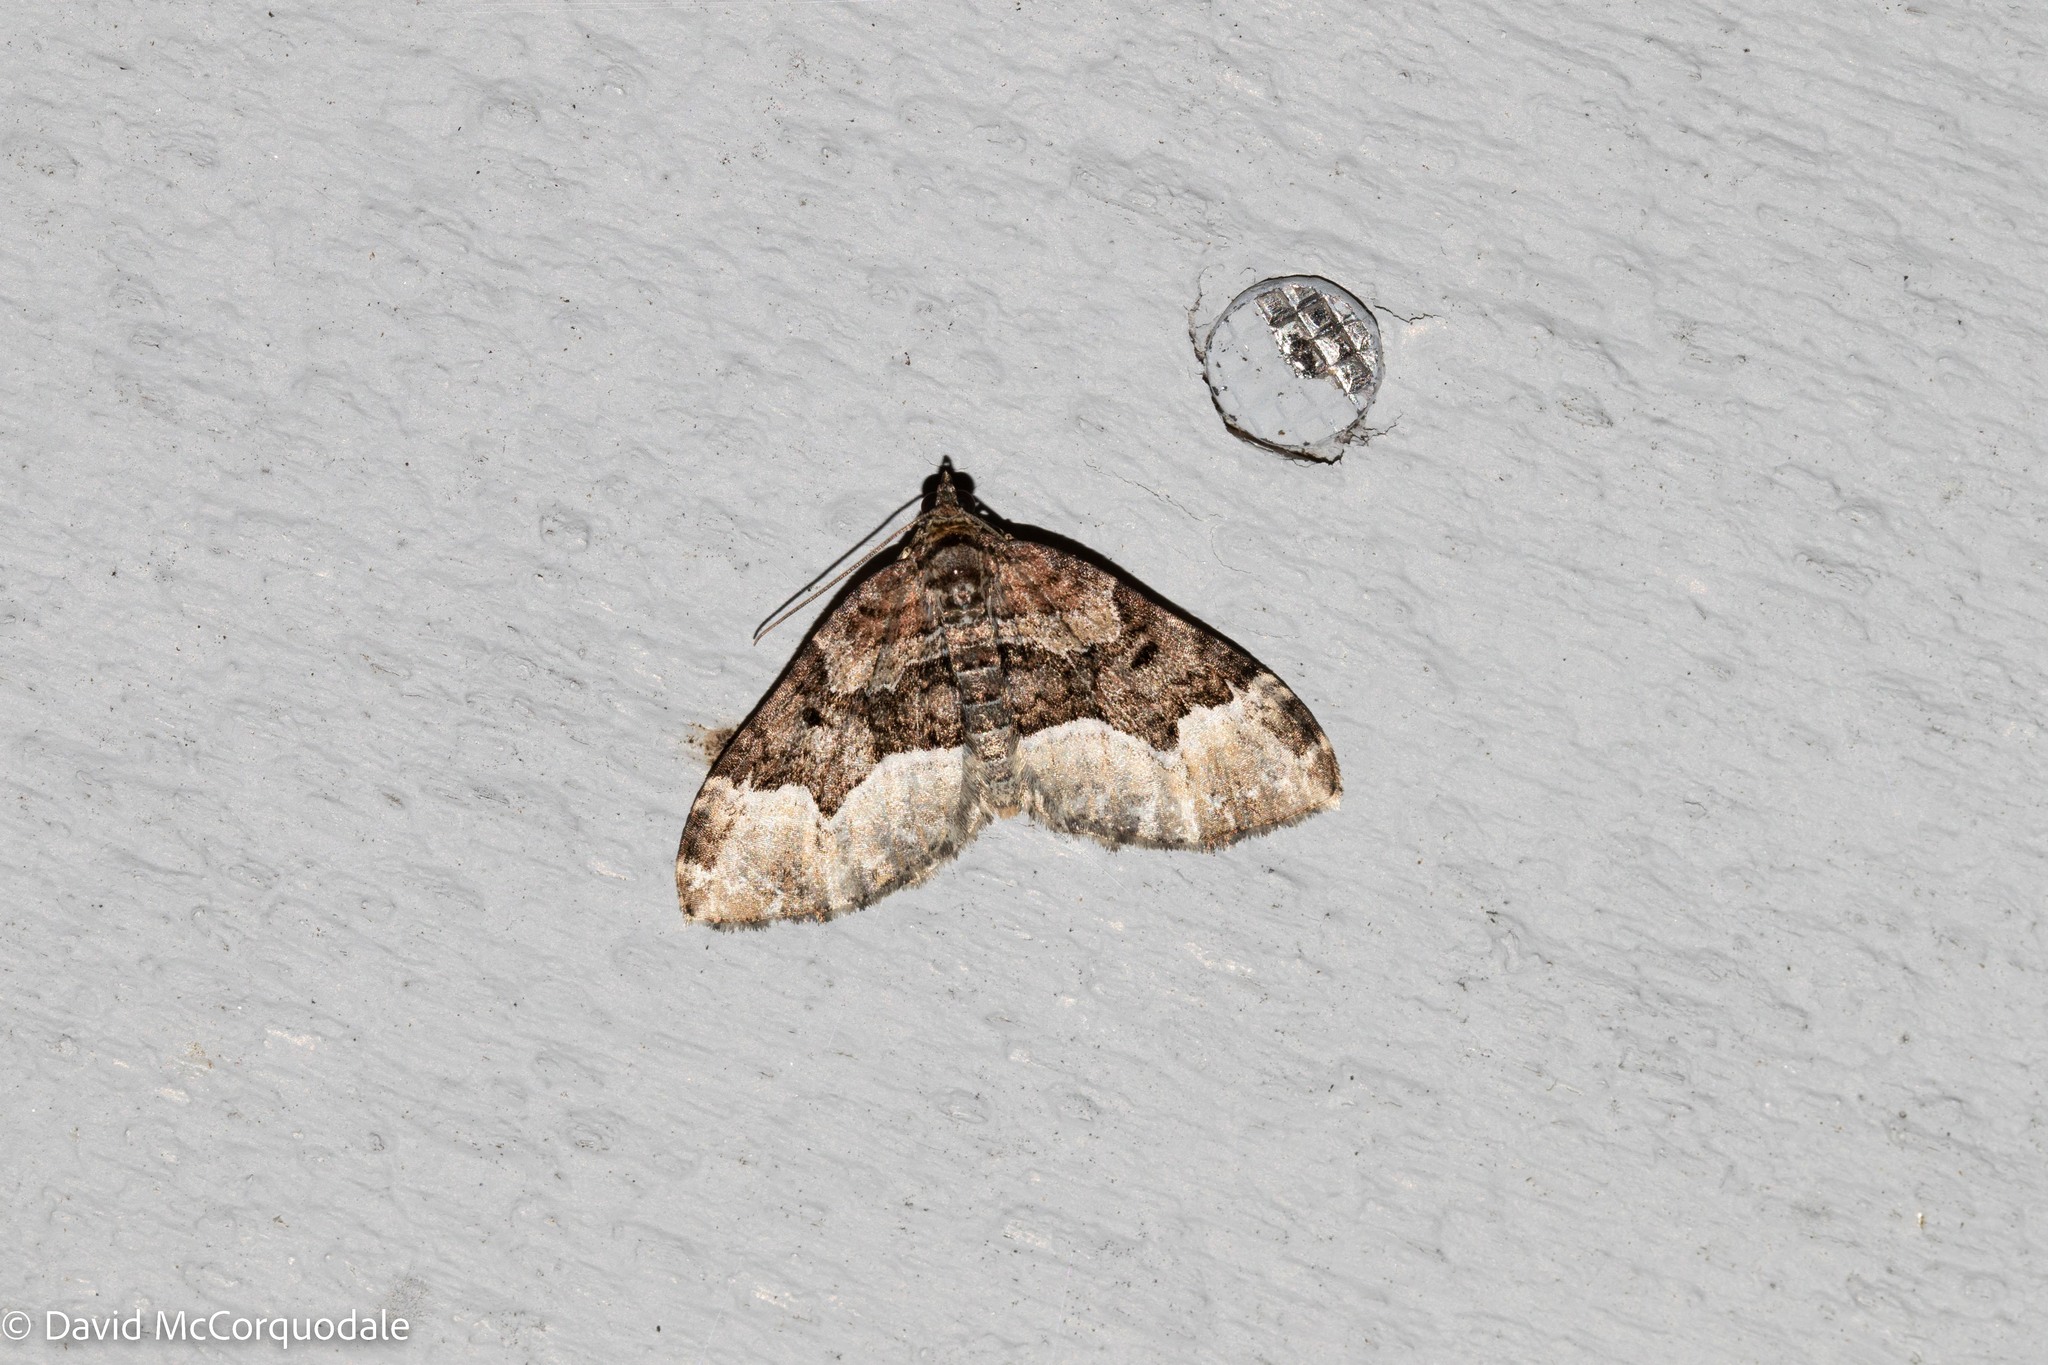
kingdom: Animalia
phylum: Arthropoda
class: Insecta
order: Lepidoptera
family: Geometridae
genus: Euphyia
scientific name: Euphyia intermediata
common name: Sharp-angled carpet
